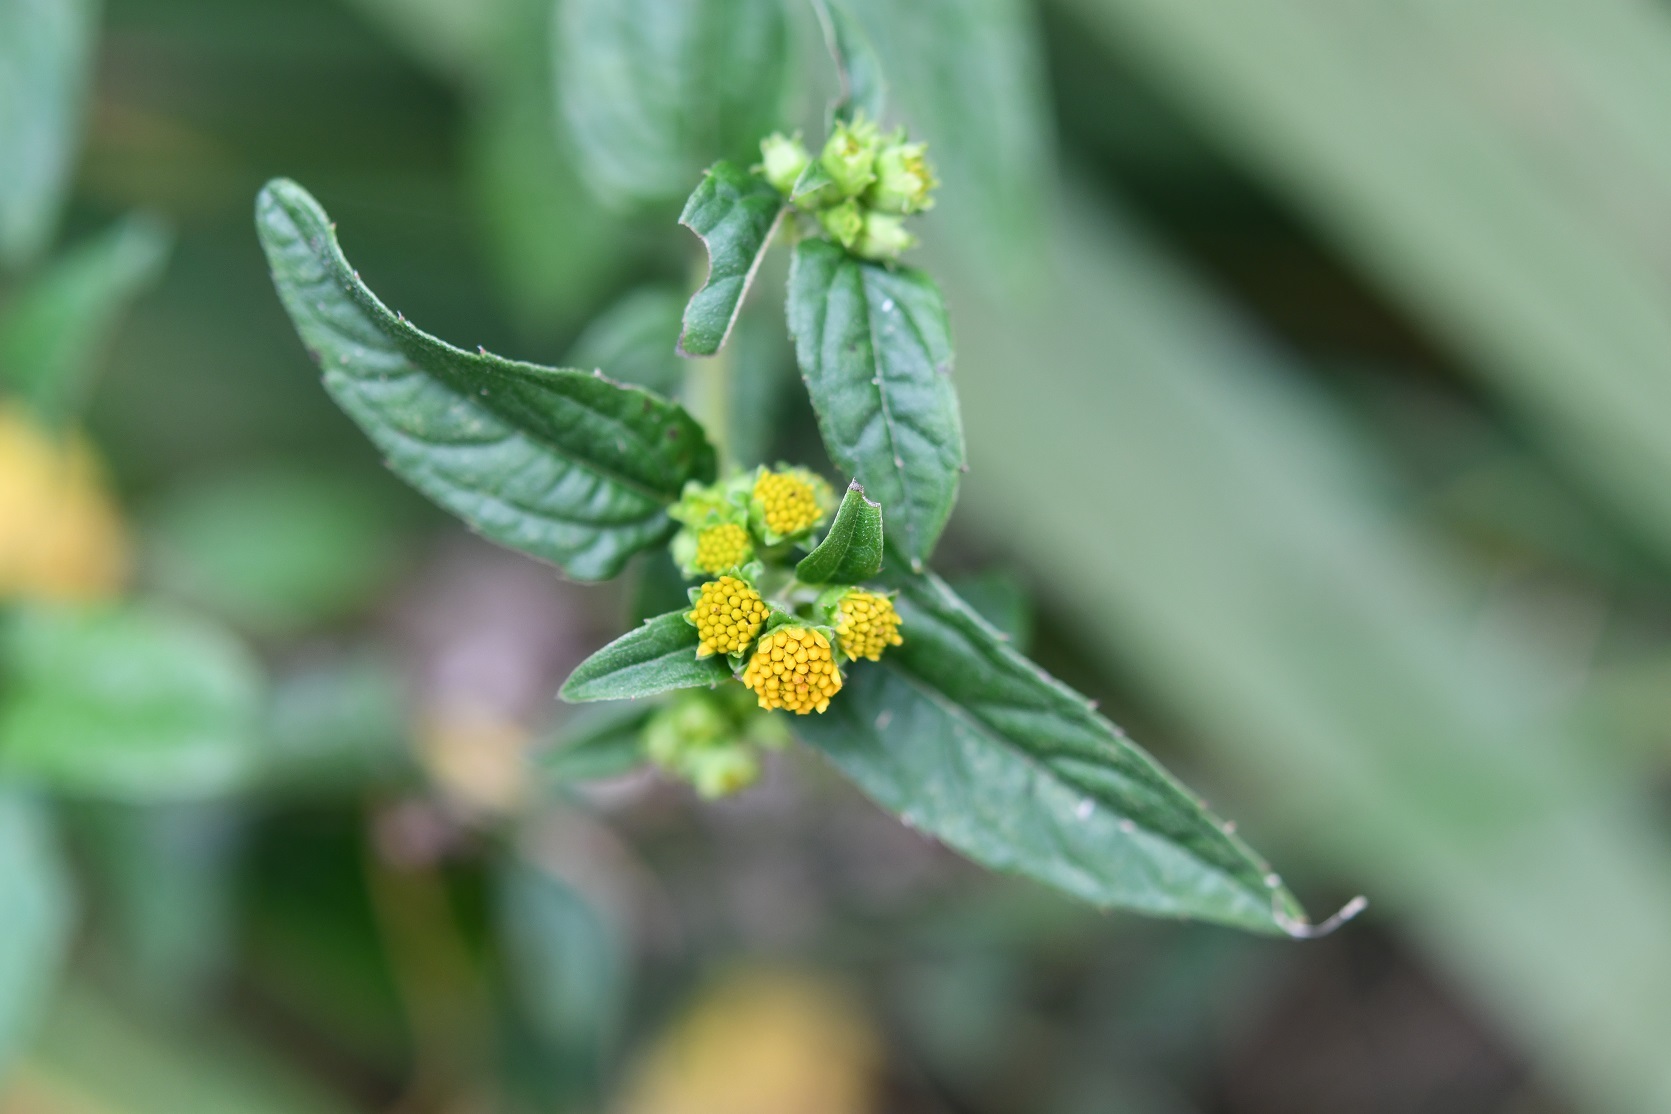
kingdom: Plantae
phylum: Tracheophyta
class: Magnoliopsida
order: Asterales
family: Asteraceae
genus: Perymenium
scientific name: Perymenium ghiesbreghtii
